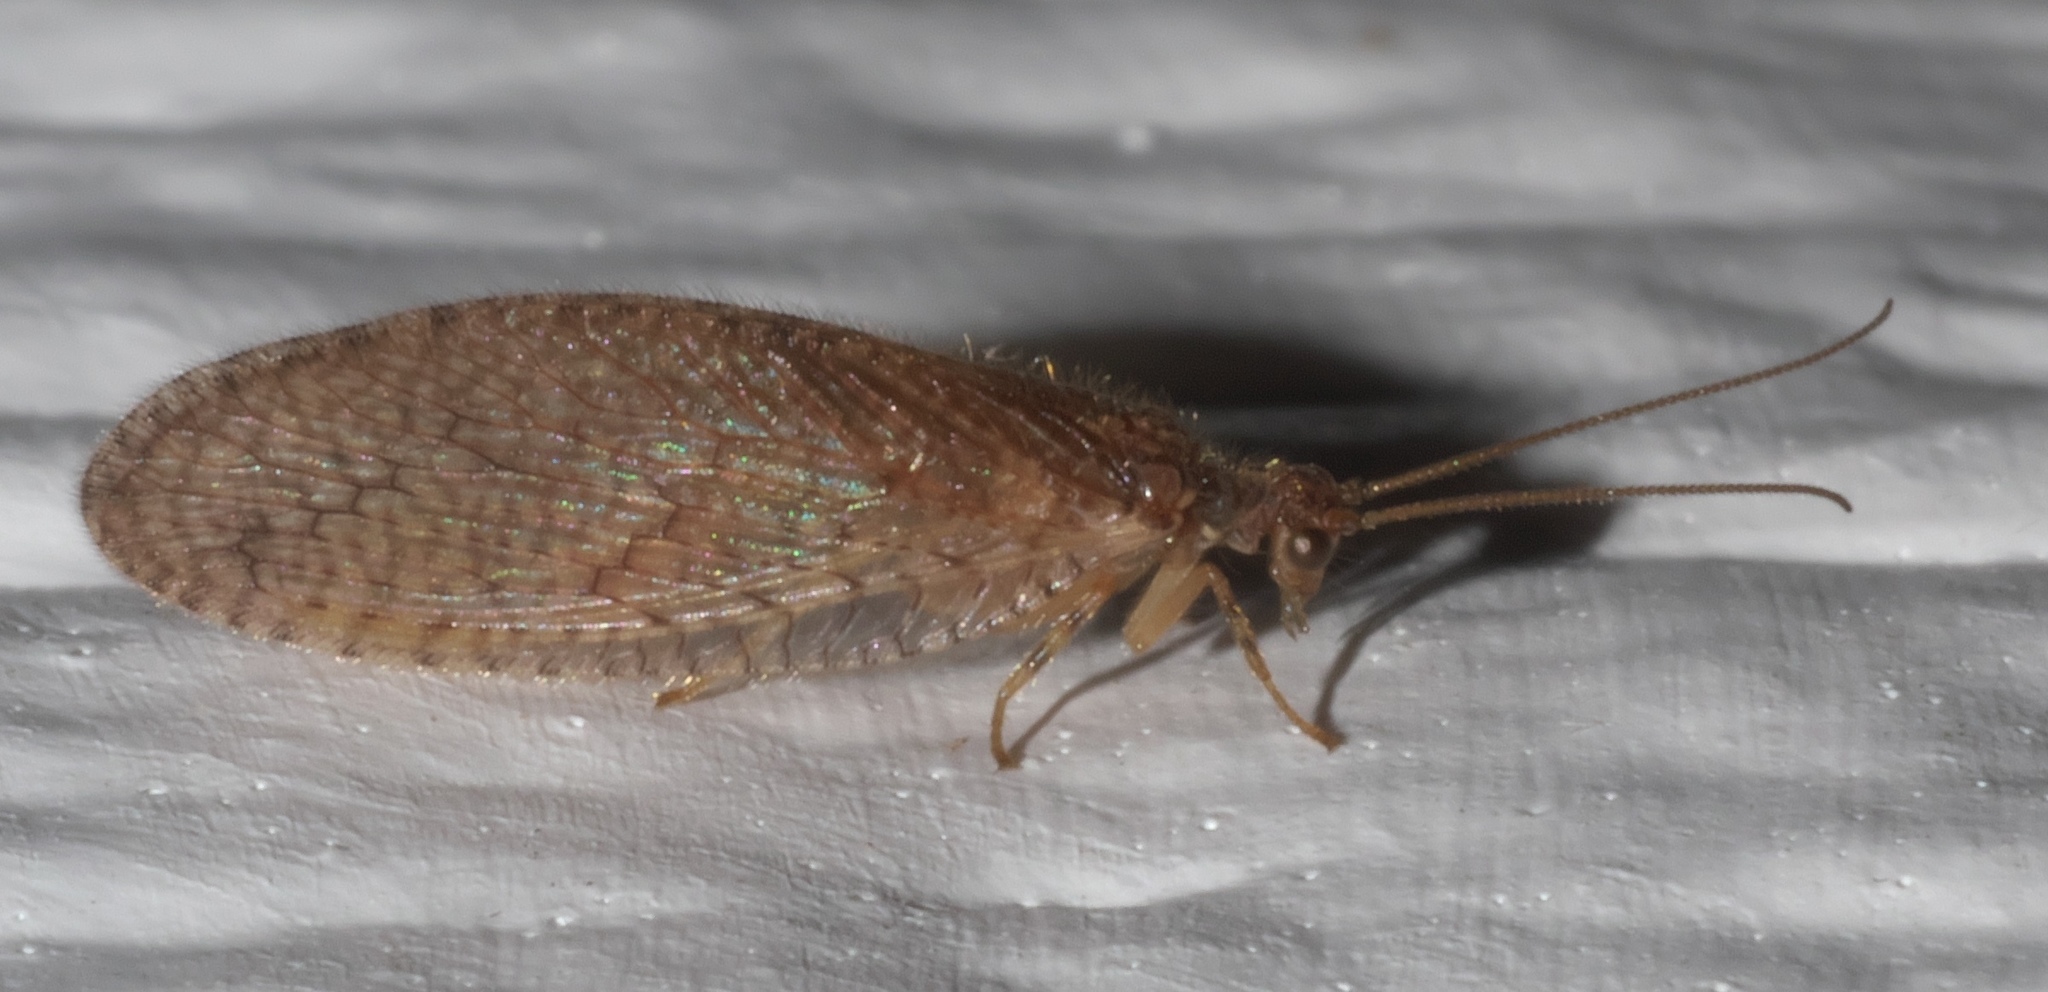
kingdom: Animalia
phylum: Arthropoda
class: Insecta
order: Neuroptera
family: Hemerobiidae
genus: Micromus
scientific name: Micromus posticus
